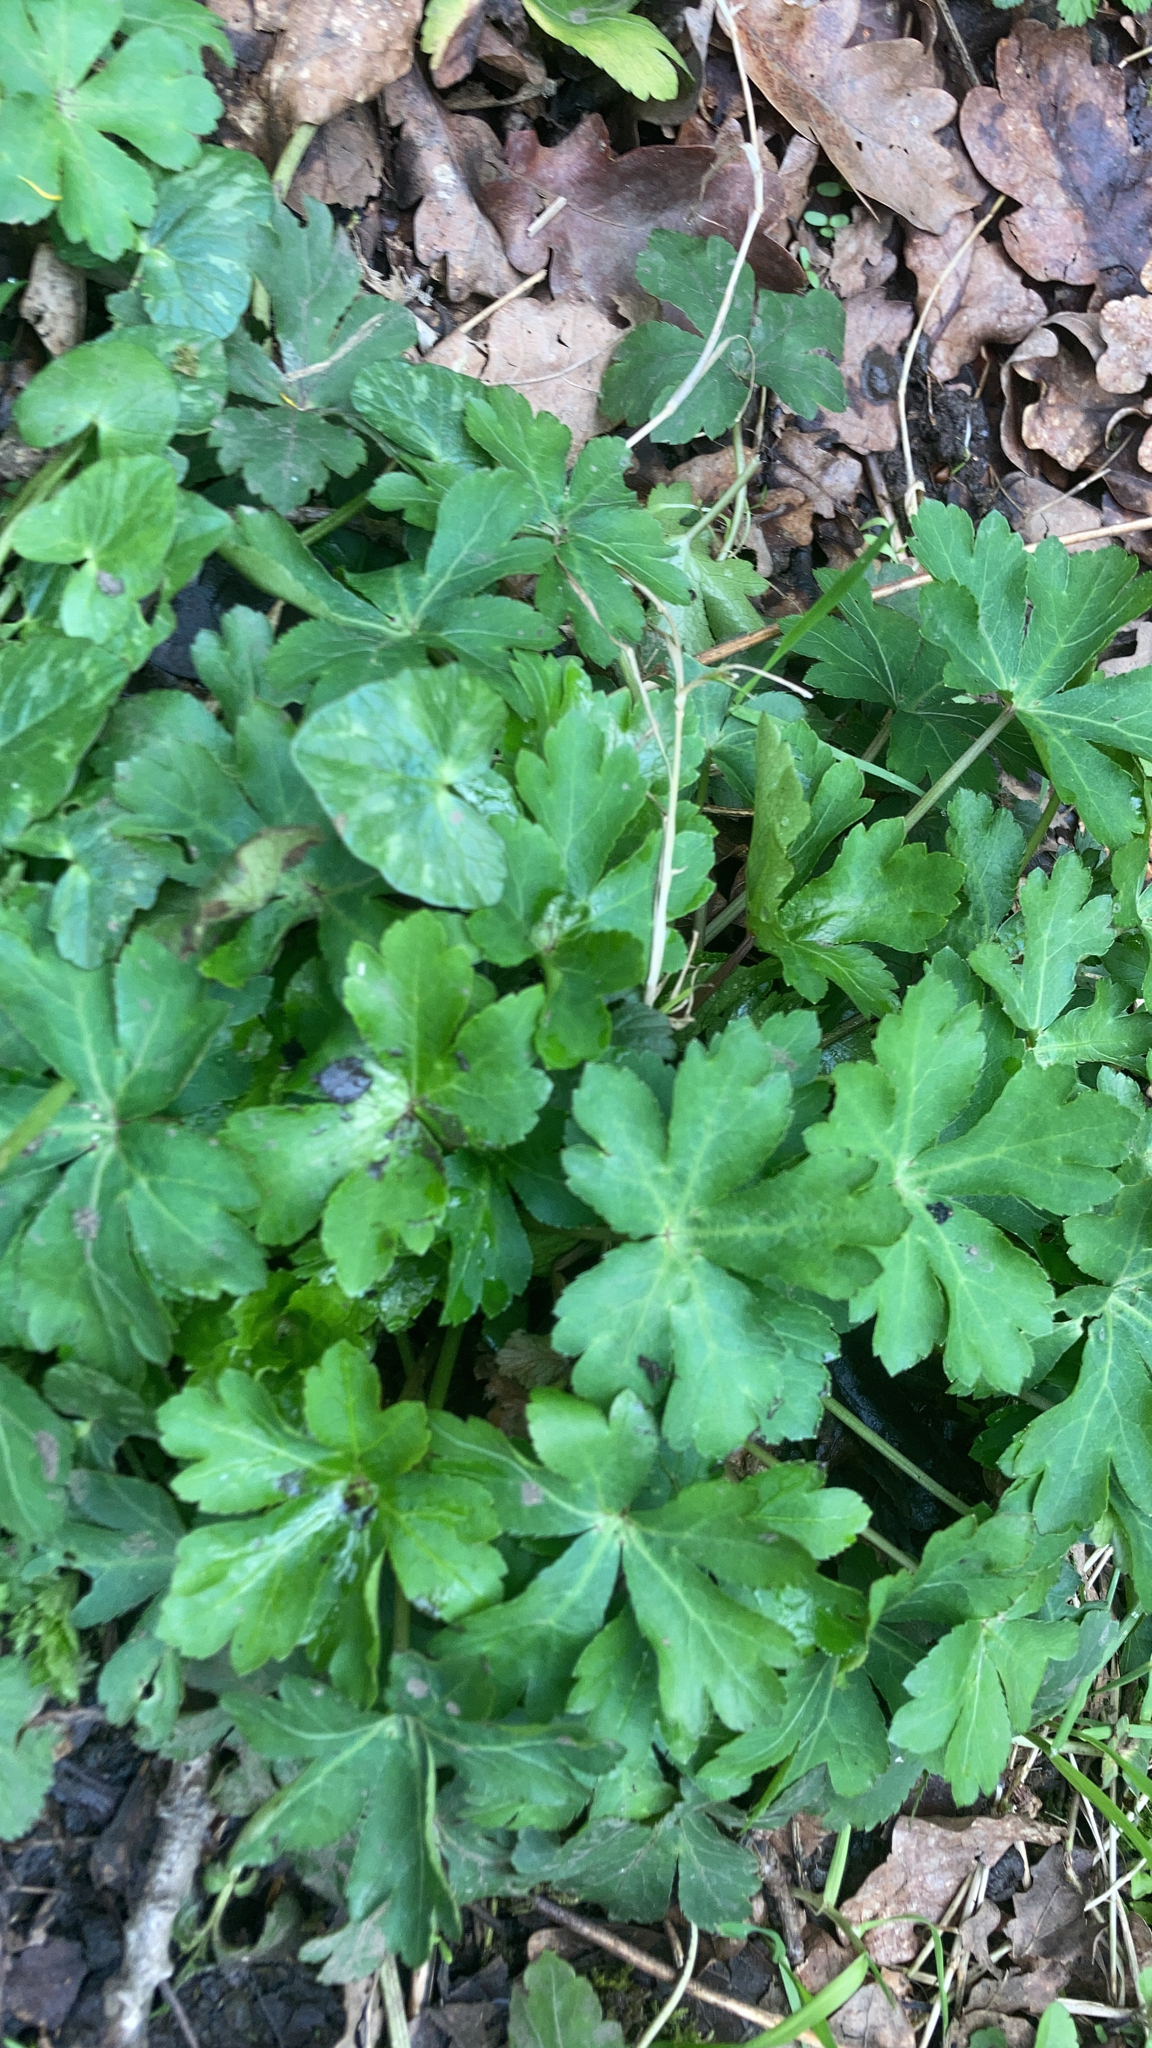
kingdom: Plantae
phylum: Tracheophyta
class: Magnoliopsida
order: Apiales
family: Apiaceae
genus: Sanicula
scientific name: Sanicula europaea
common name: Sanicle
